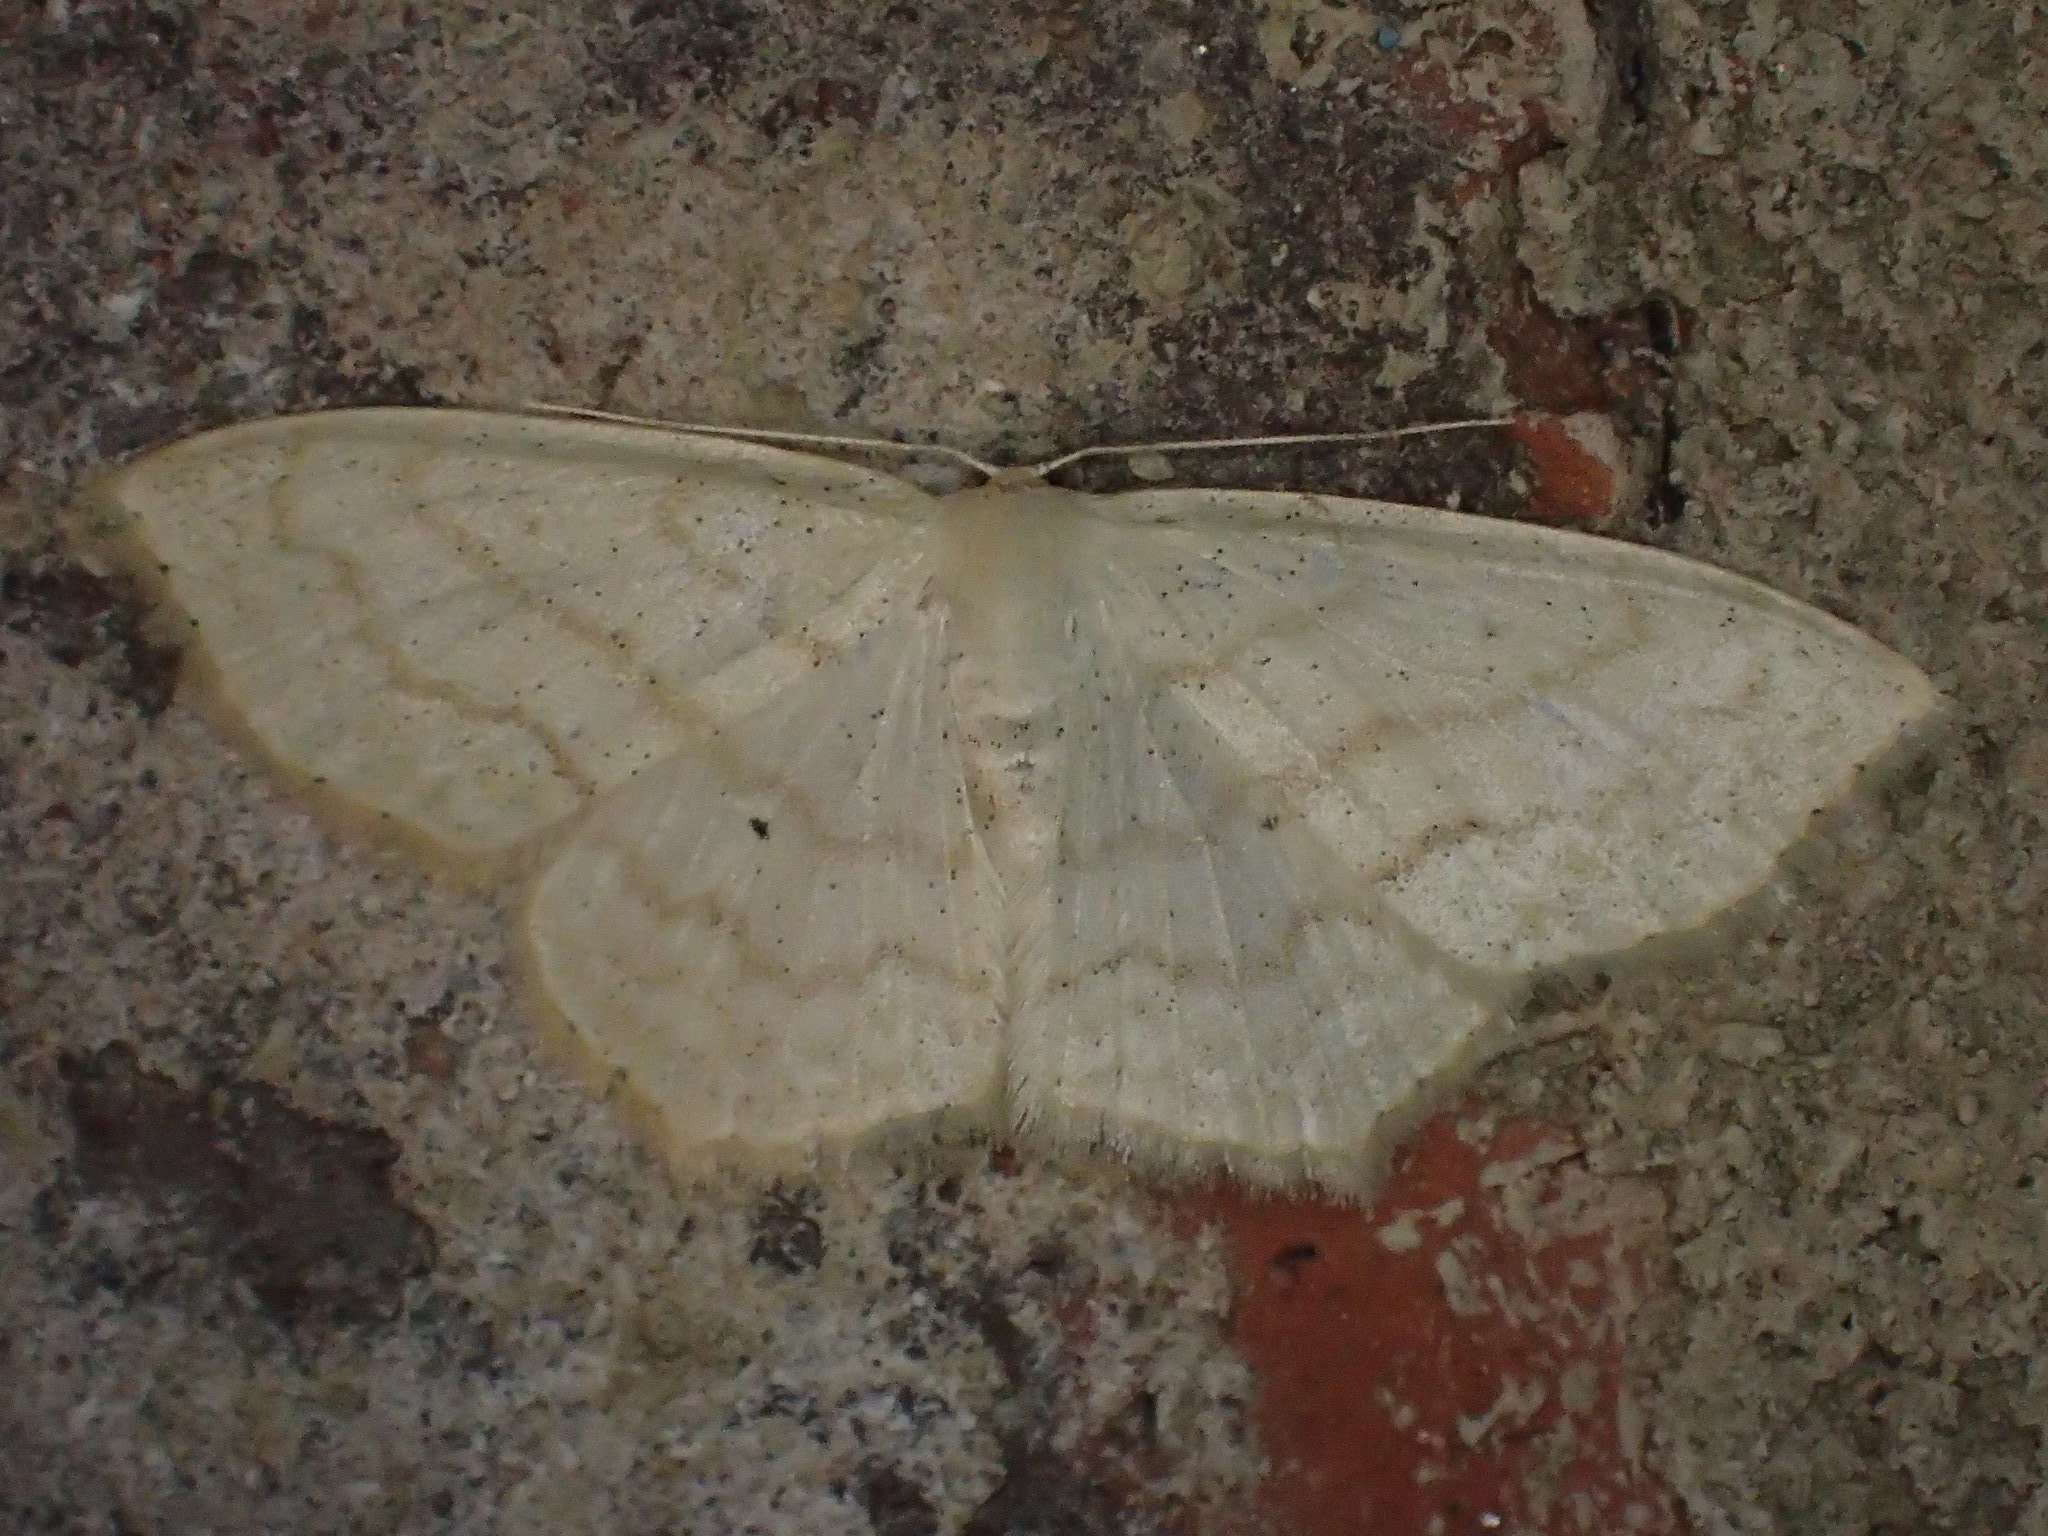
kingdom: Animalia
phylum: Arthropoda
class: Insecta
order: Lepidoptera
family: Geometridae
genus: Scopula
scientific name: Scopula limboundata
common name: Large lace border
